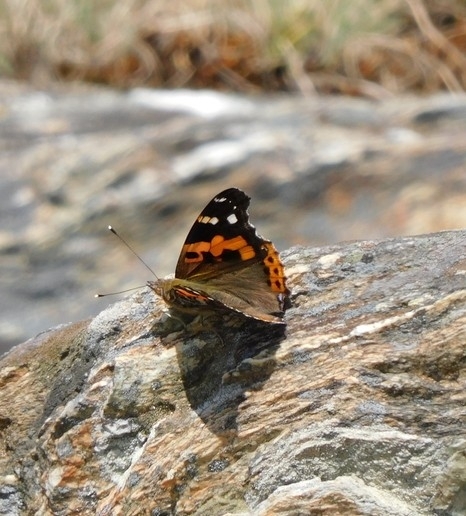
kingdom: Animalia
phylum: Arthropoda
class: Insecta
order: Lepidoptera
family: Nymphalidae
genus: Vanessa
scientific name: Vanessa indica
